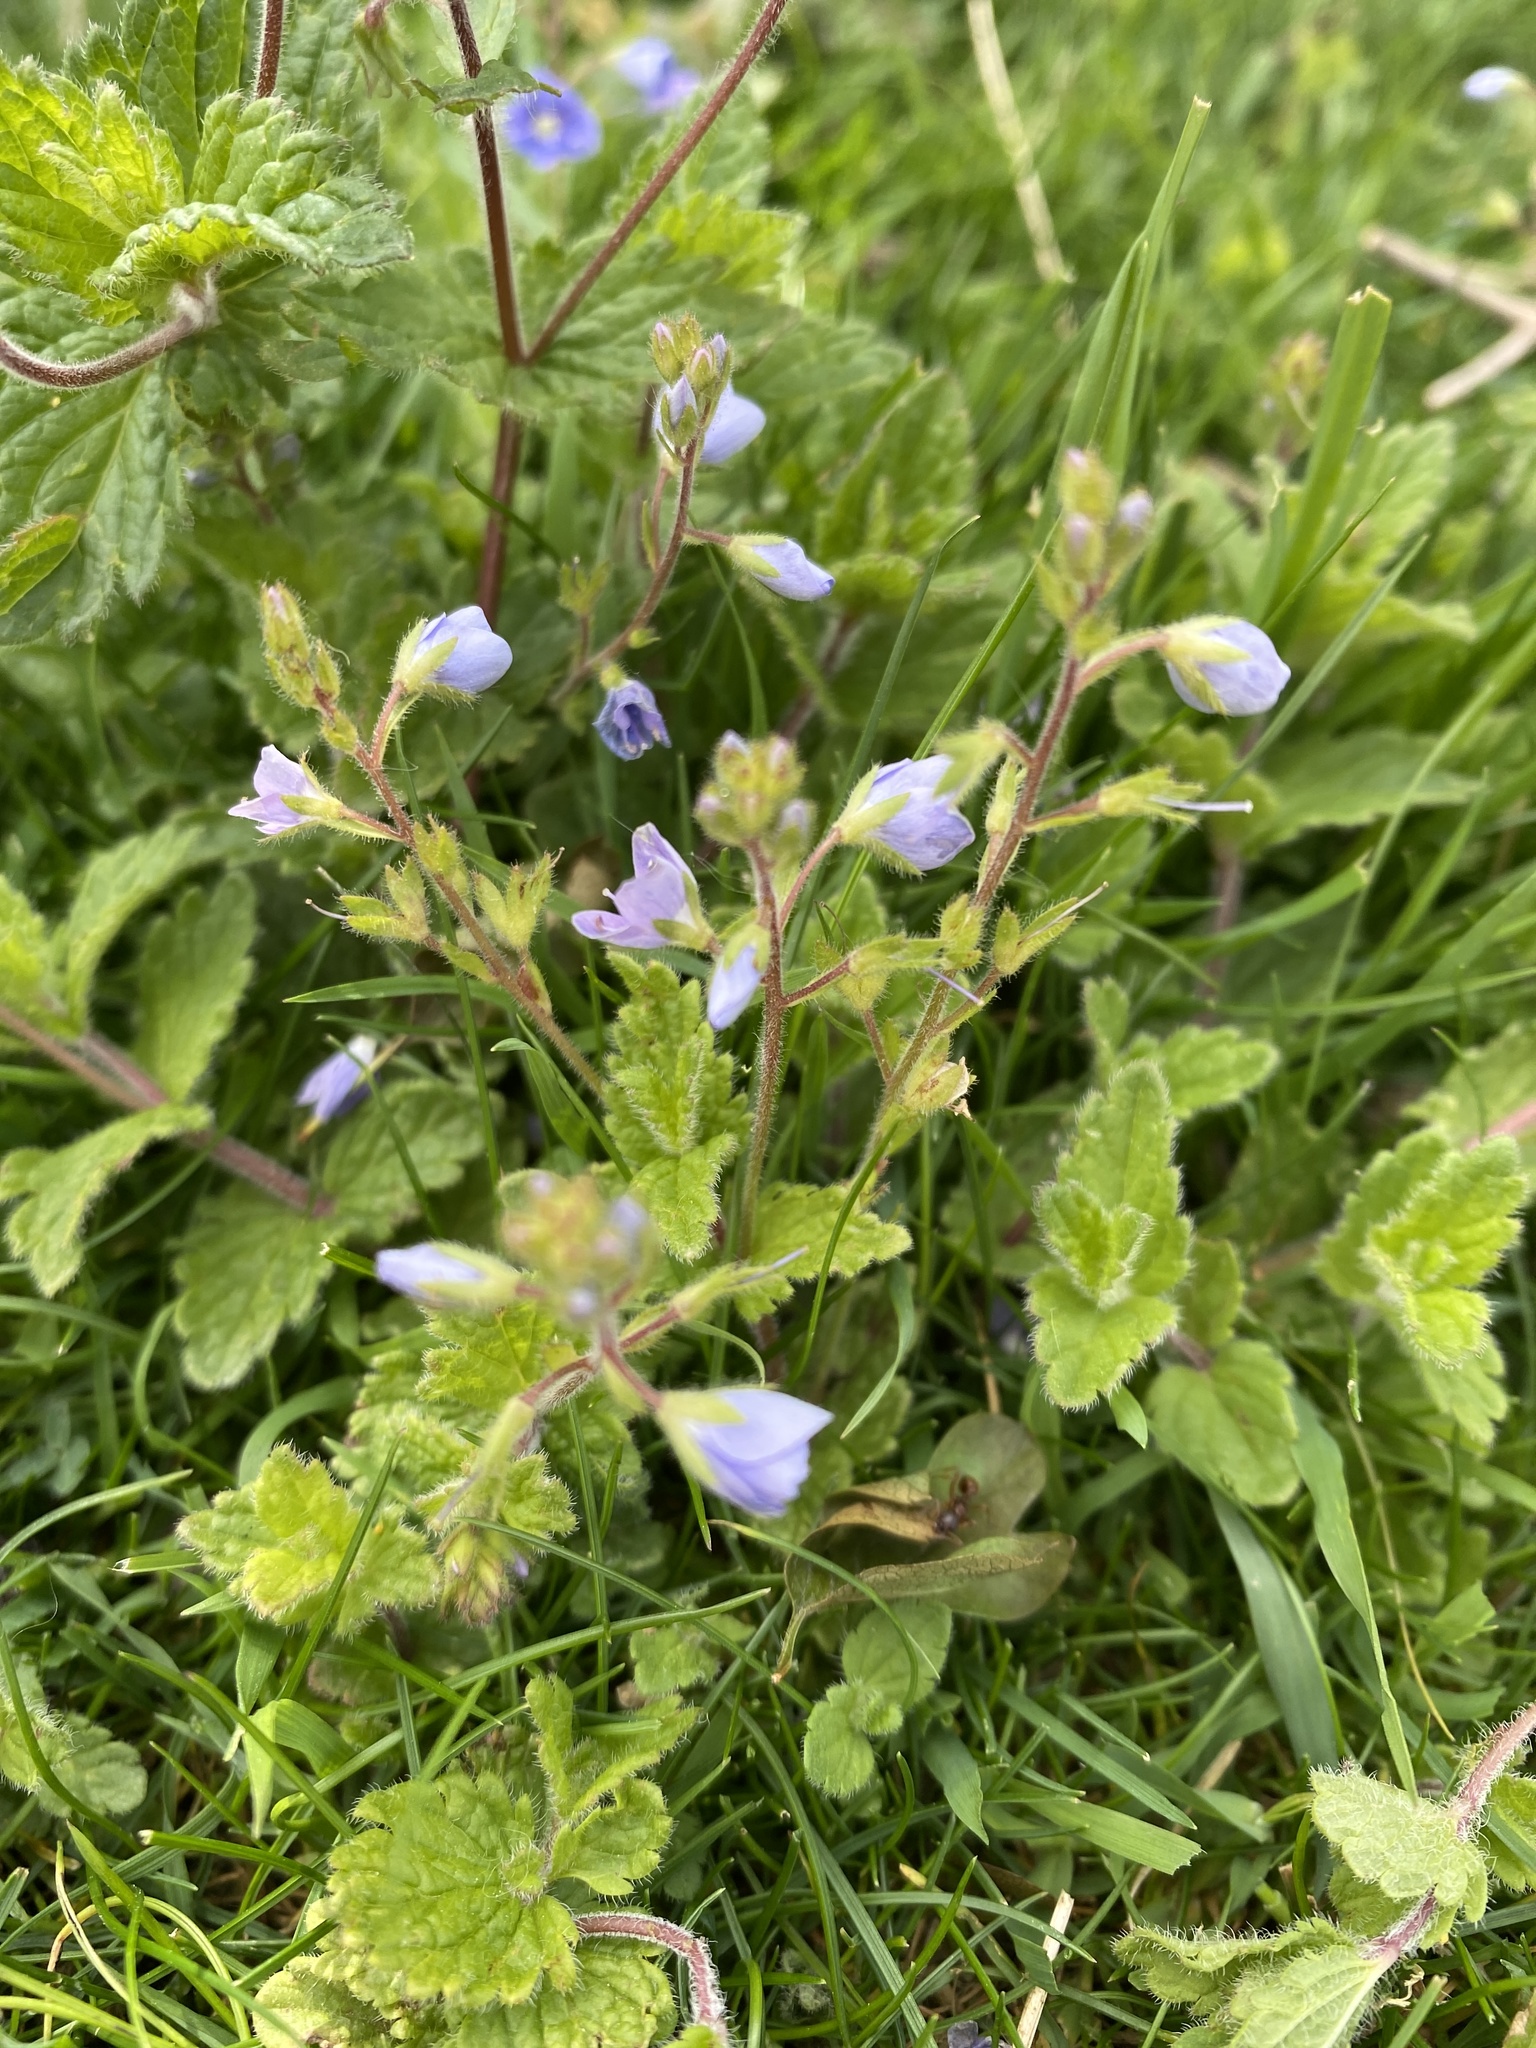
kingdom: Plantae
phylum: Tracheophyta
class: Magnoliopsida
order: Lamiales
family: Plantaginaceae
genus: Veronica
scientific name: Veronica chamaedrys
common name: Germander speedwell
